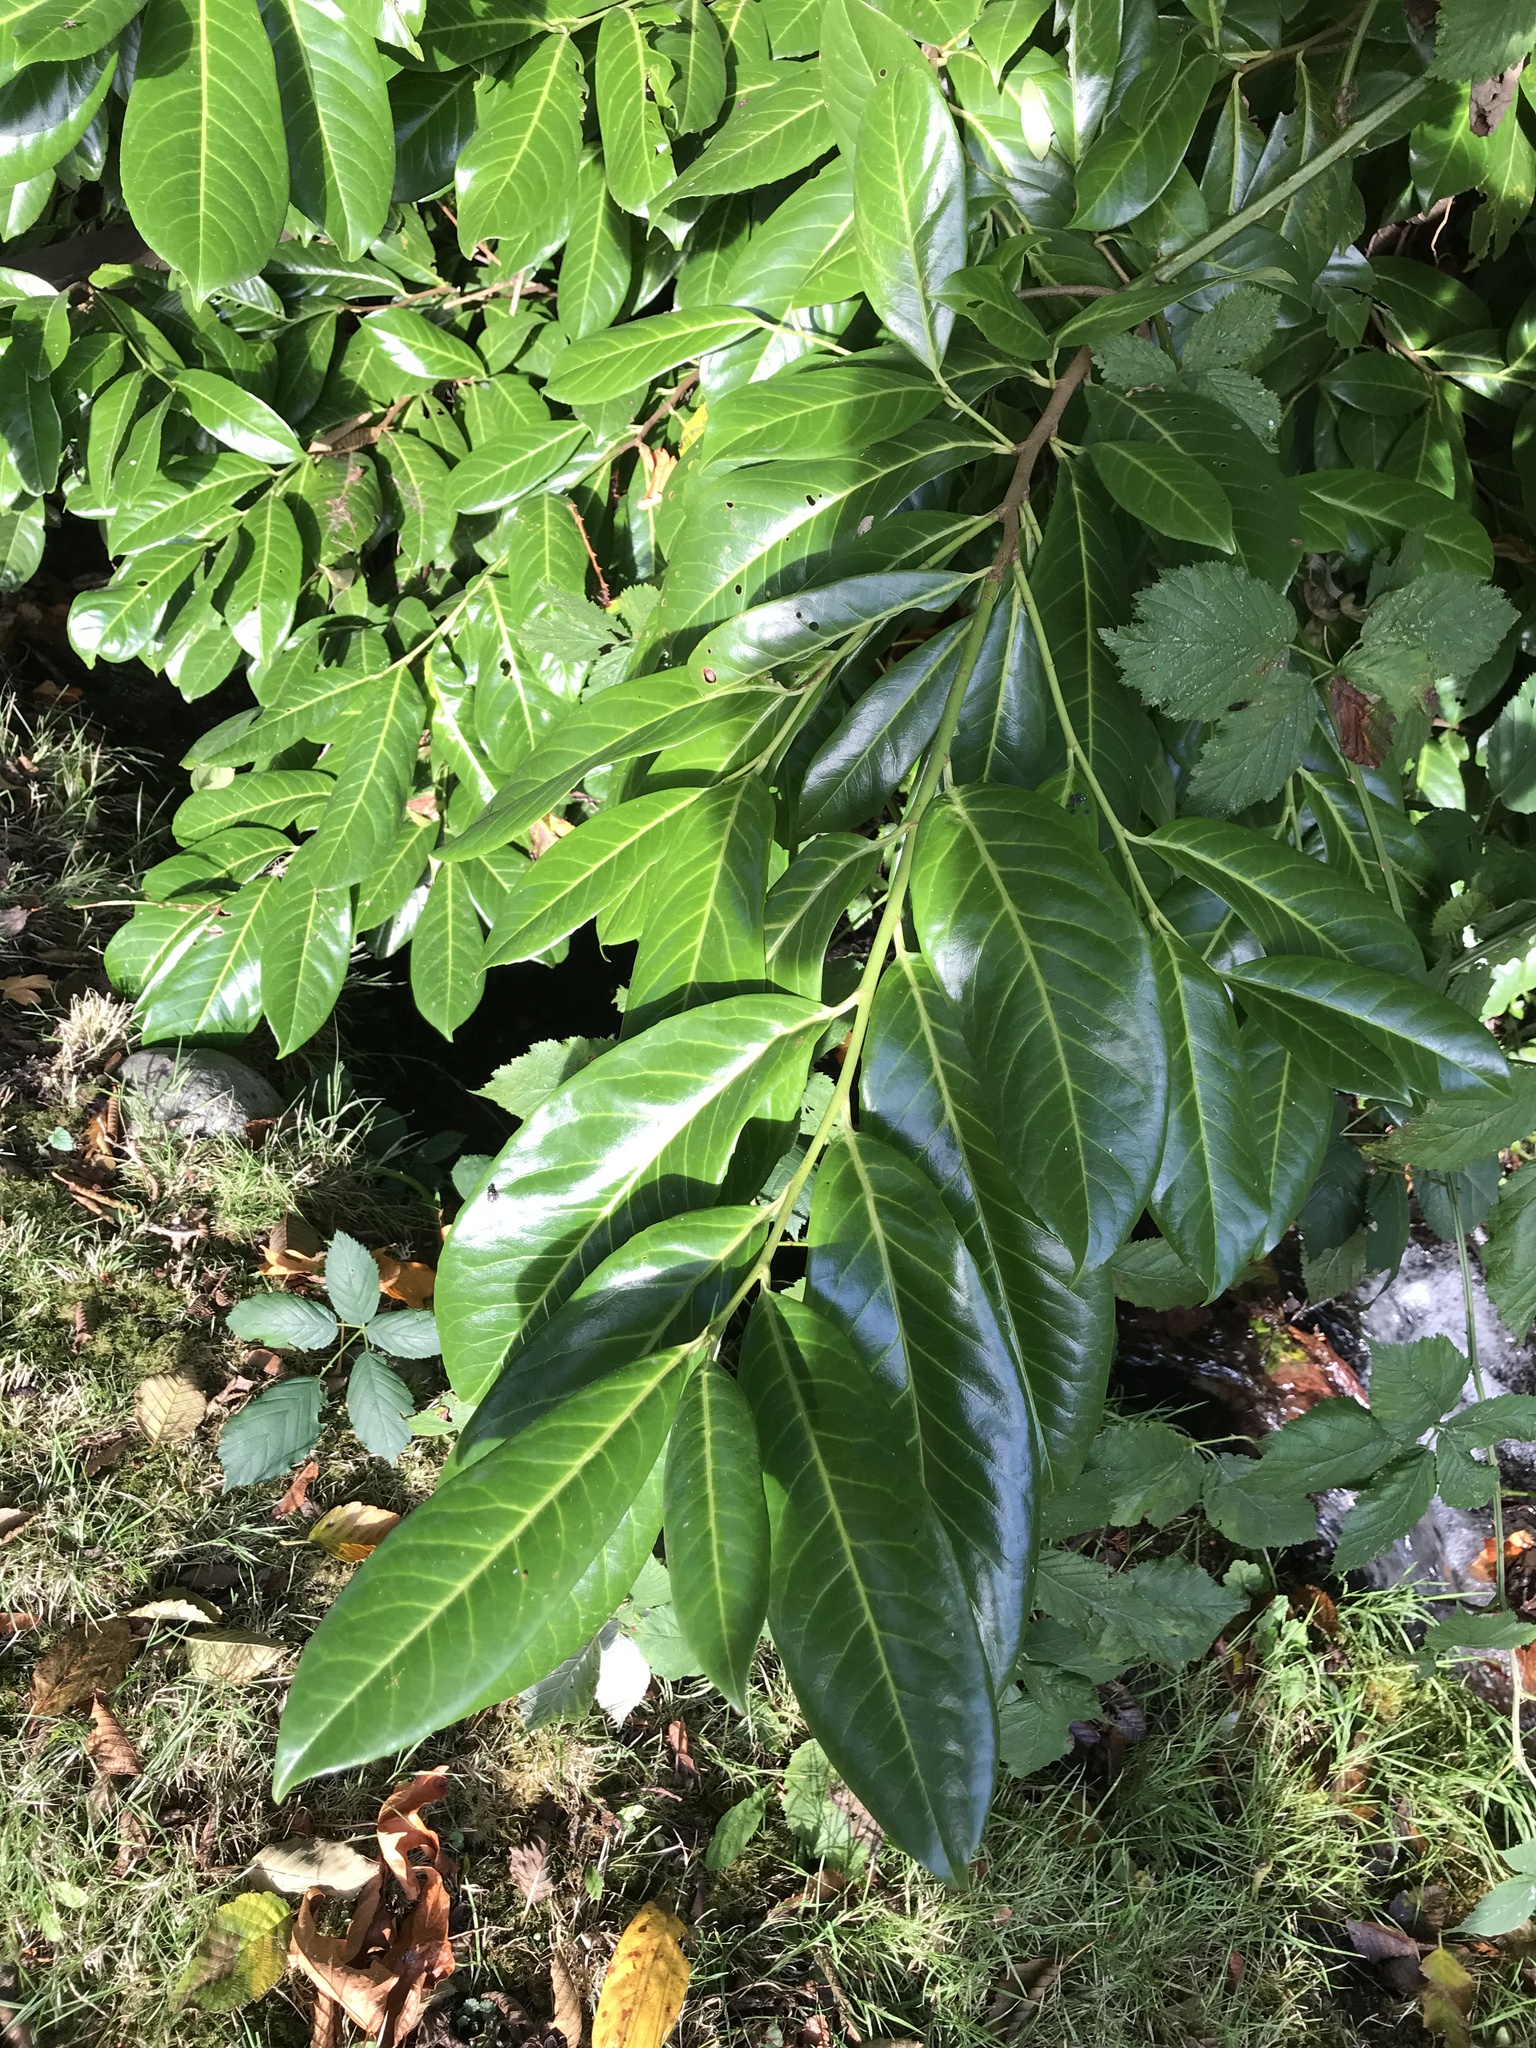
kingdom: Plantae
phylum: Tracheophyta
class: Magnoliopsida
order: Rosales
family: Rosaceae
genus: Prunus
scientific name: Prunus laurocerasus
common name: Cherry laurel
